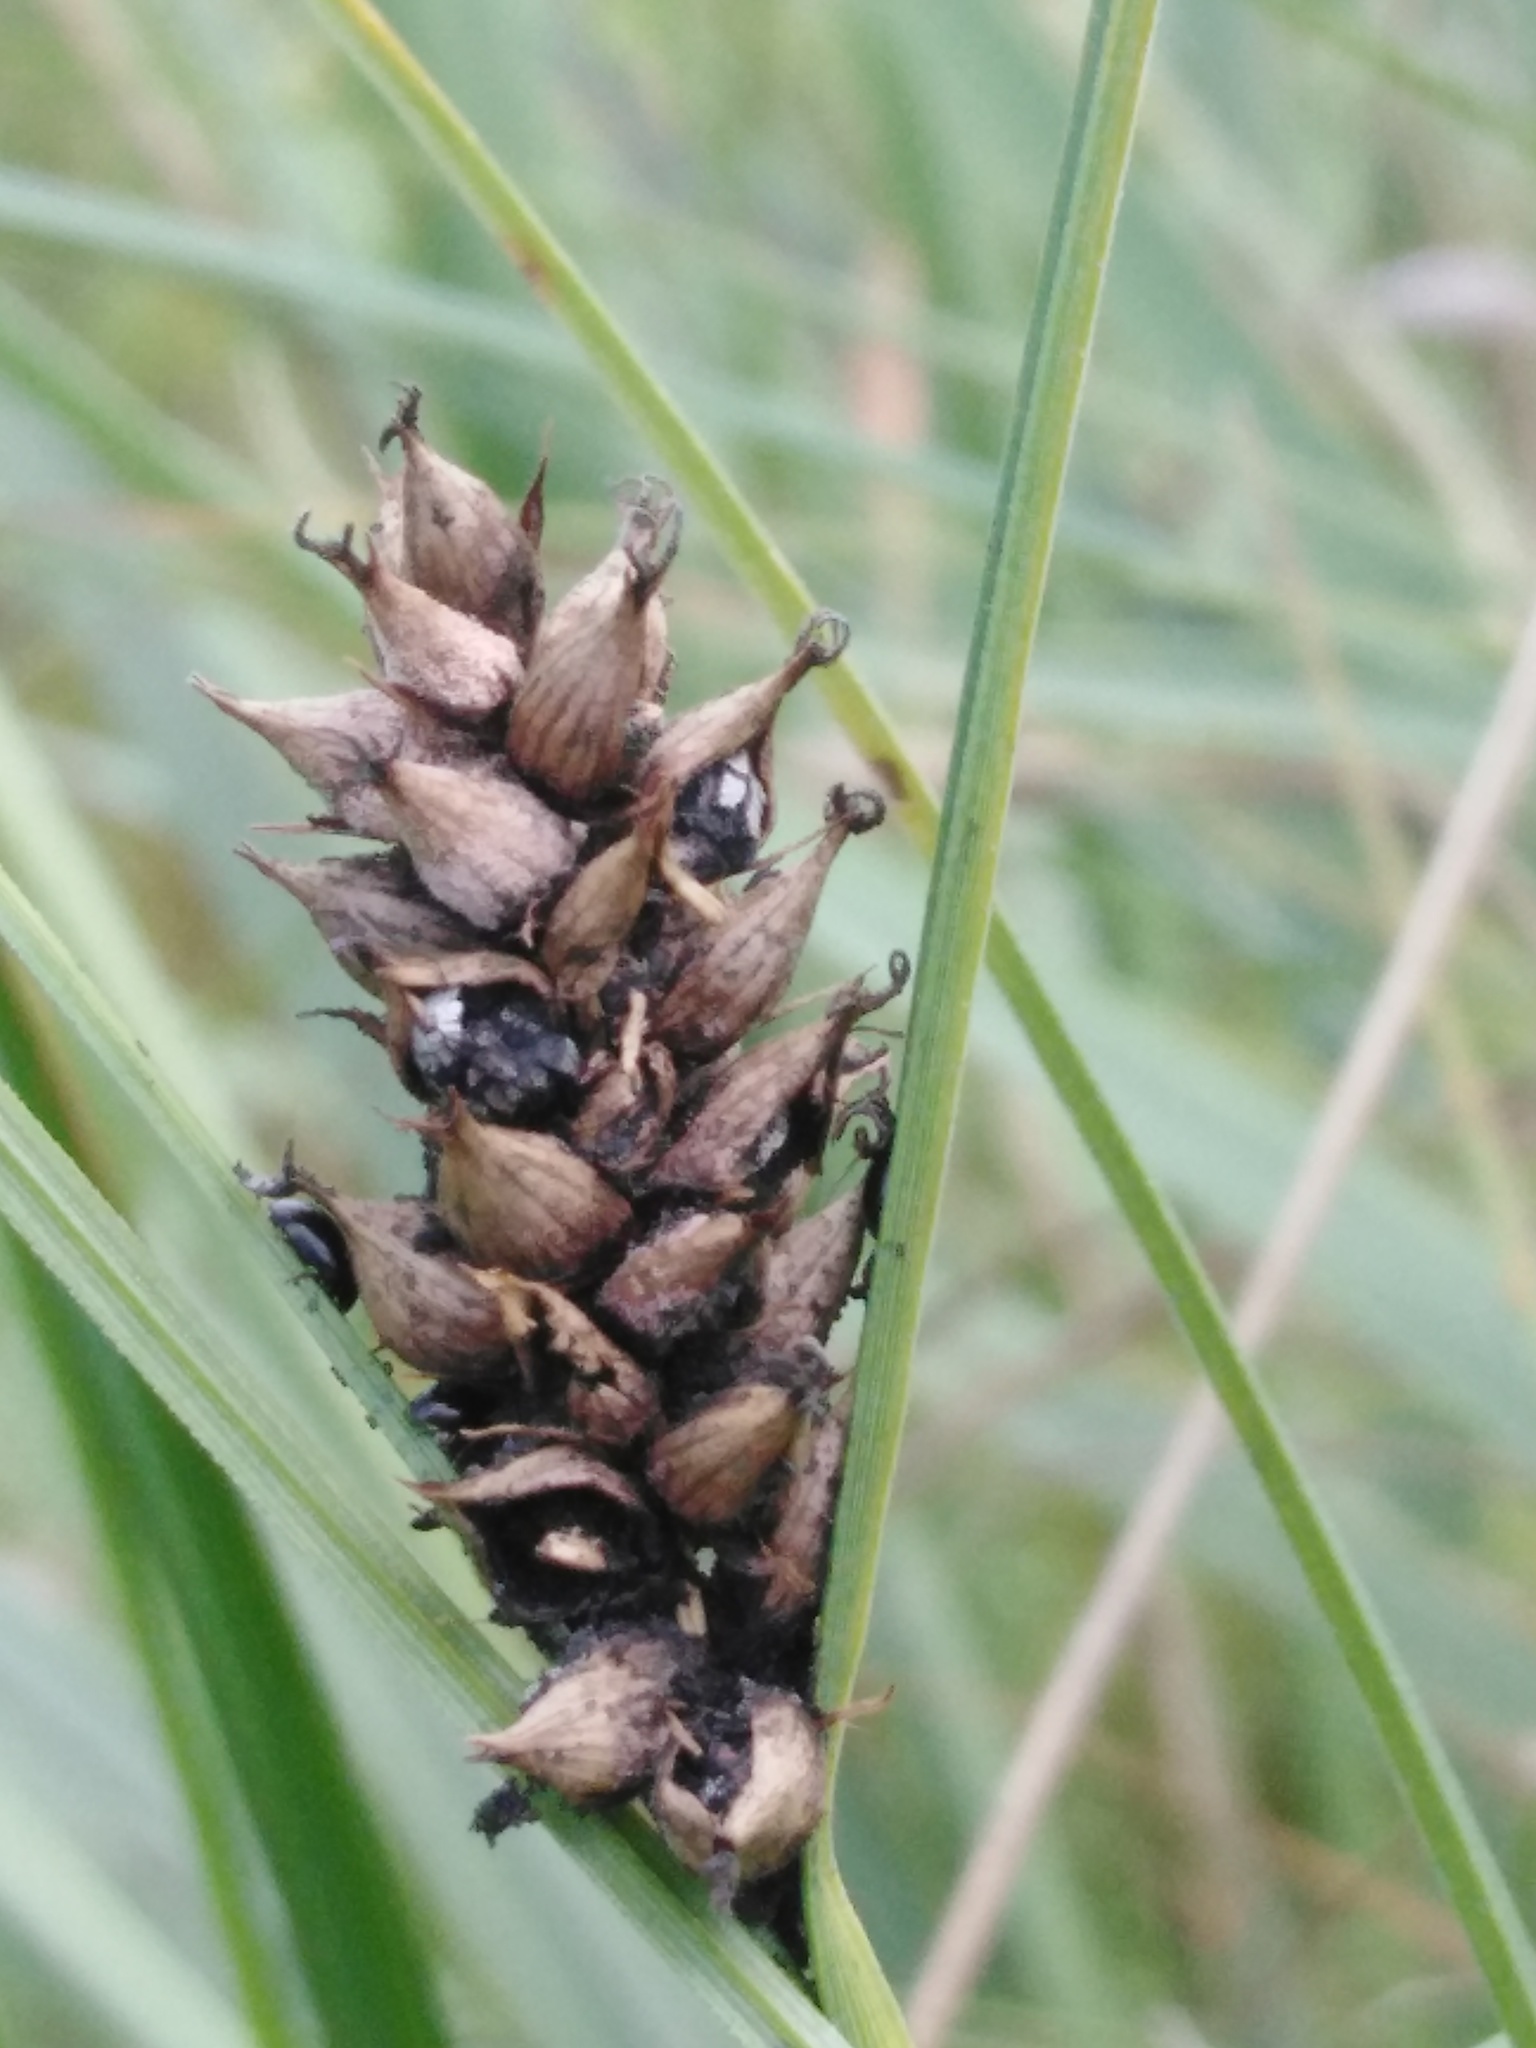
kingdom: Plantae
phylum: Tracheophyta
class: Liliopsida
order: Poales
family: Cyperaceae
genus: Carex
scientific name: Carex melanostachya
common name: Black-spiked sedge
